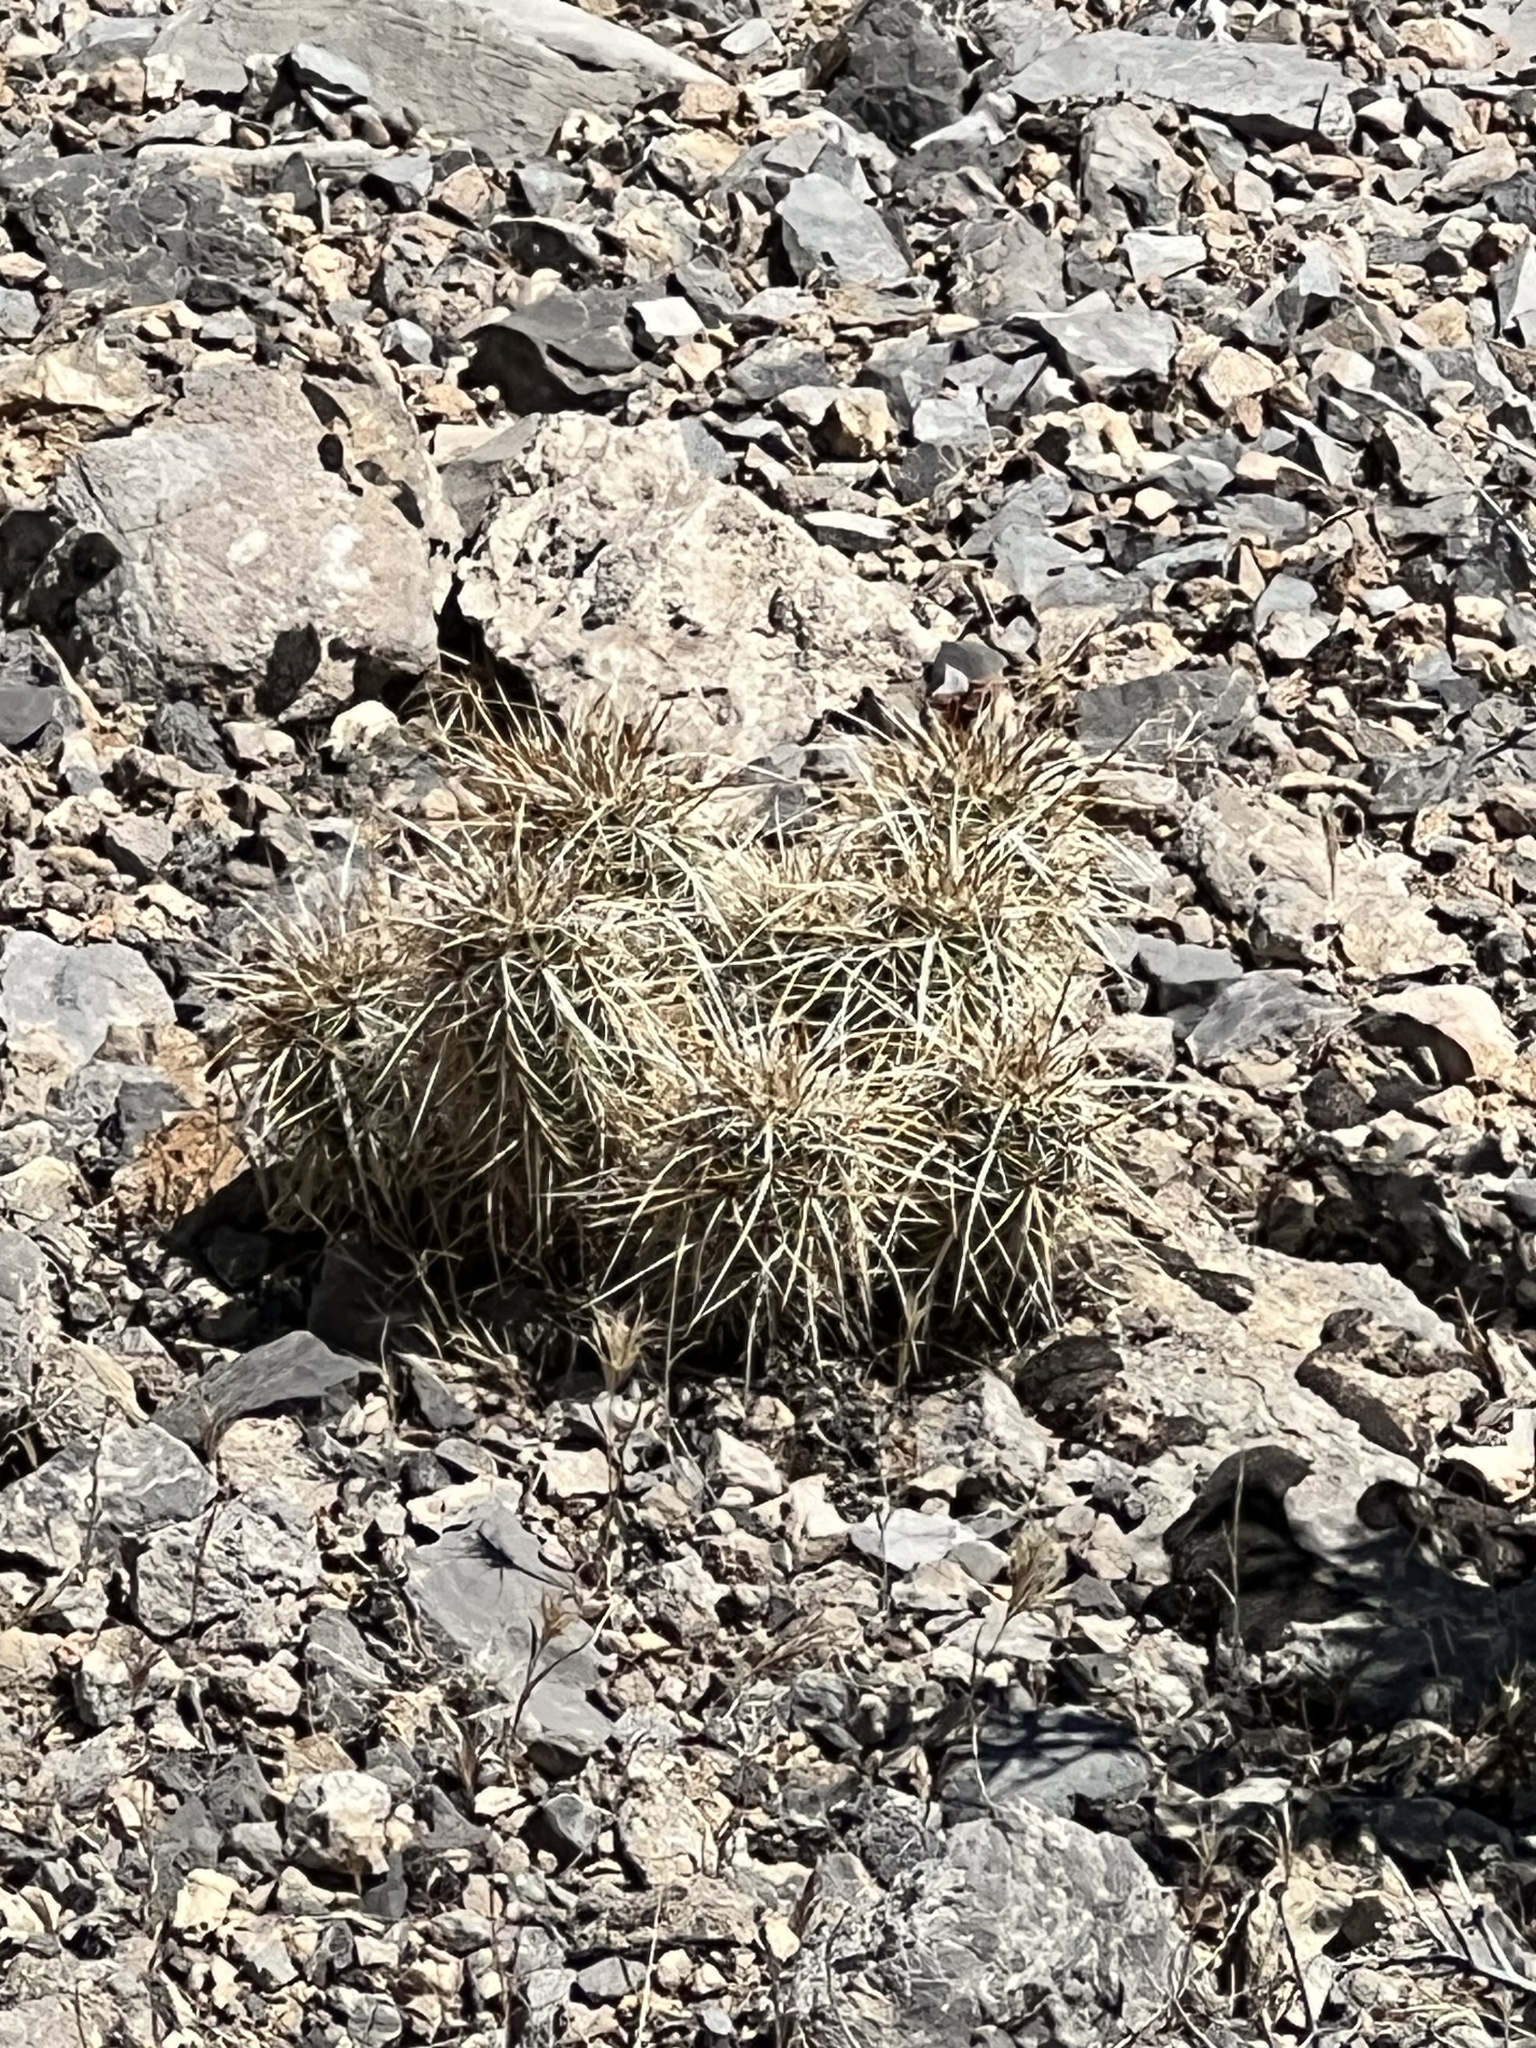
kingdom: Plantae
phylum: Tracheophyta
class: Magnoliopsida
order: Caryophyllales
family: Cactaceae
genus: Echinocereus
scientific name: Echinocereus engelmannii
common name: Engelmann's hedgehog cactus
